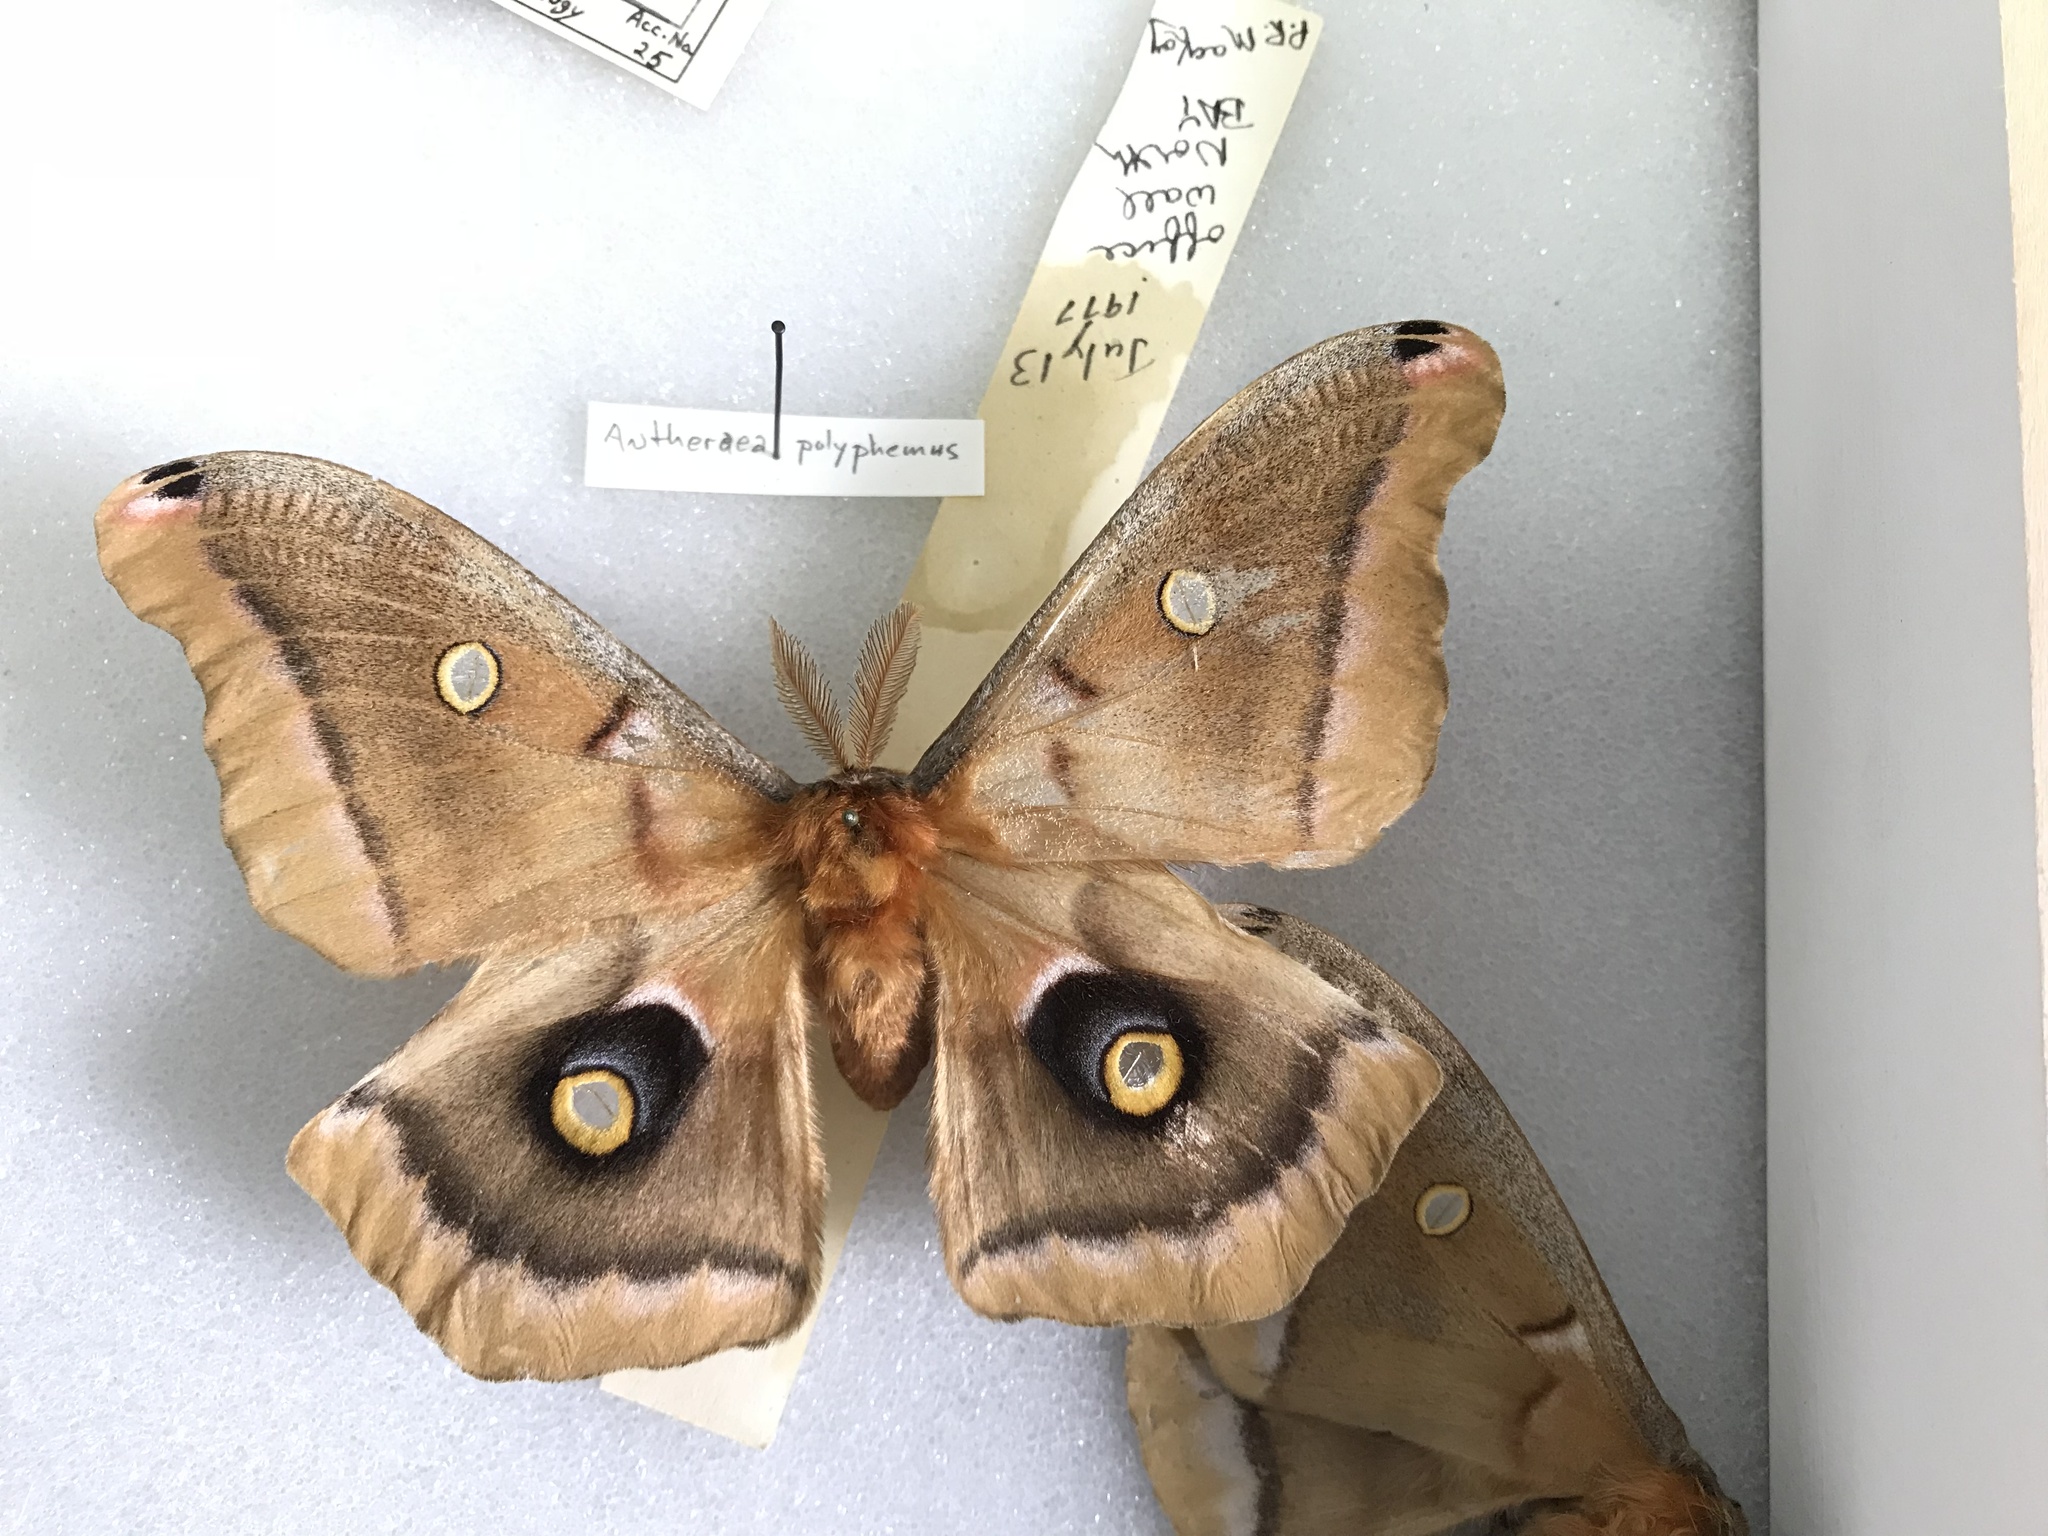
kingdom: Animalia
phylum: Arthropoda
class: Insecta
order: Lepidoptera
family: Saturniidae
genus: Antheraea
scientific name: Antheraea polyphemus
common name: Polyphemus moth
